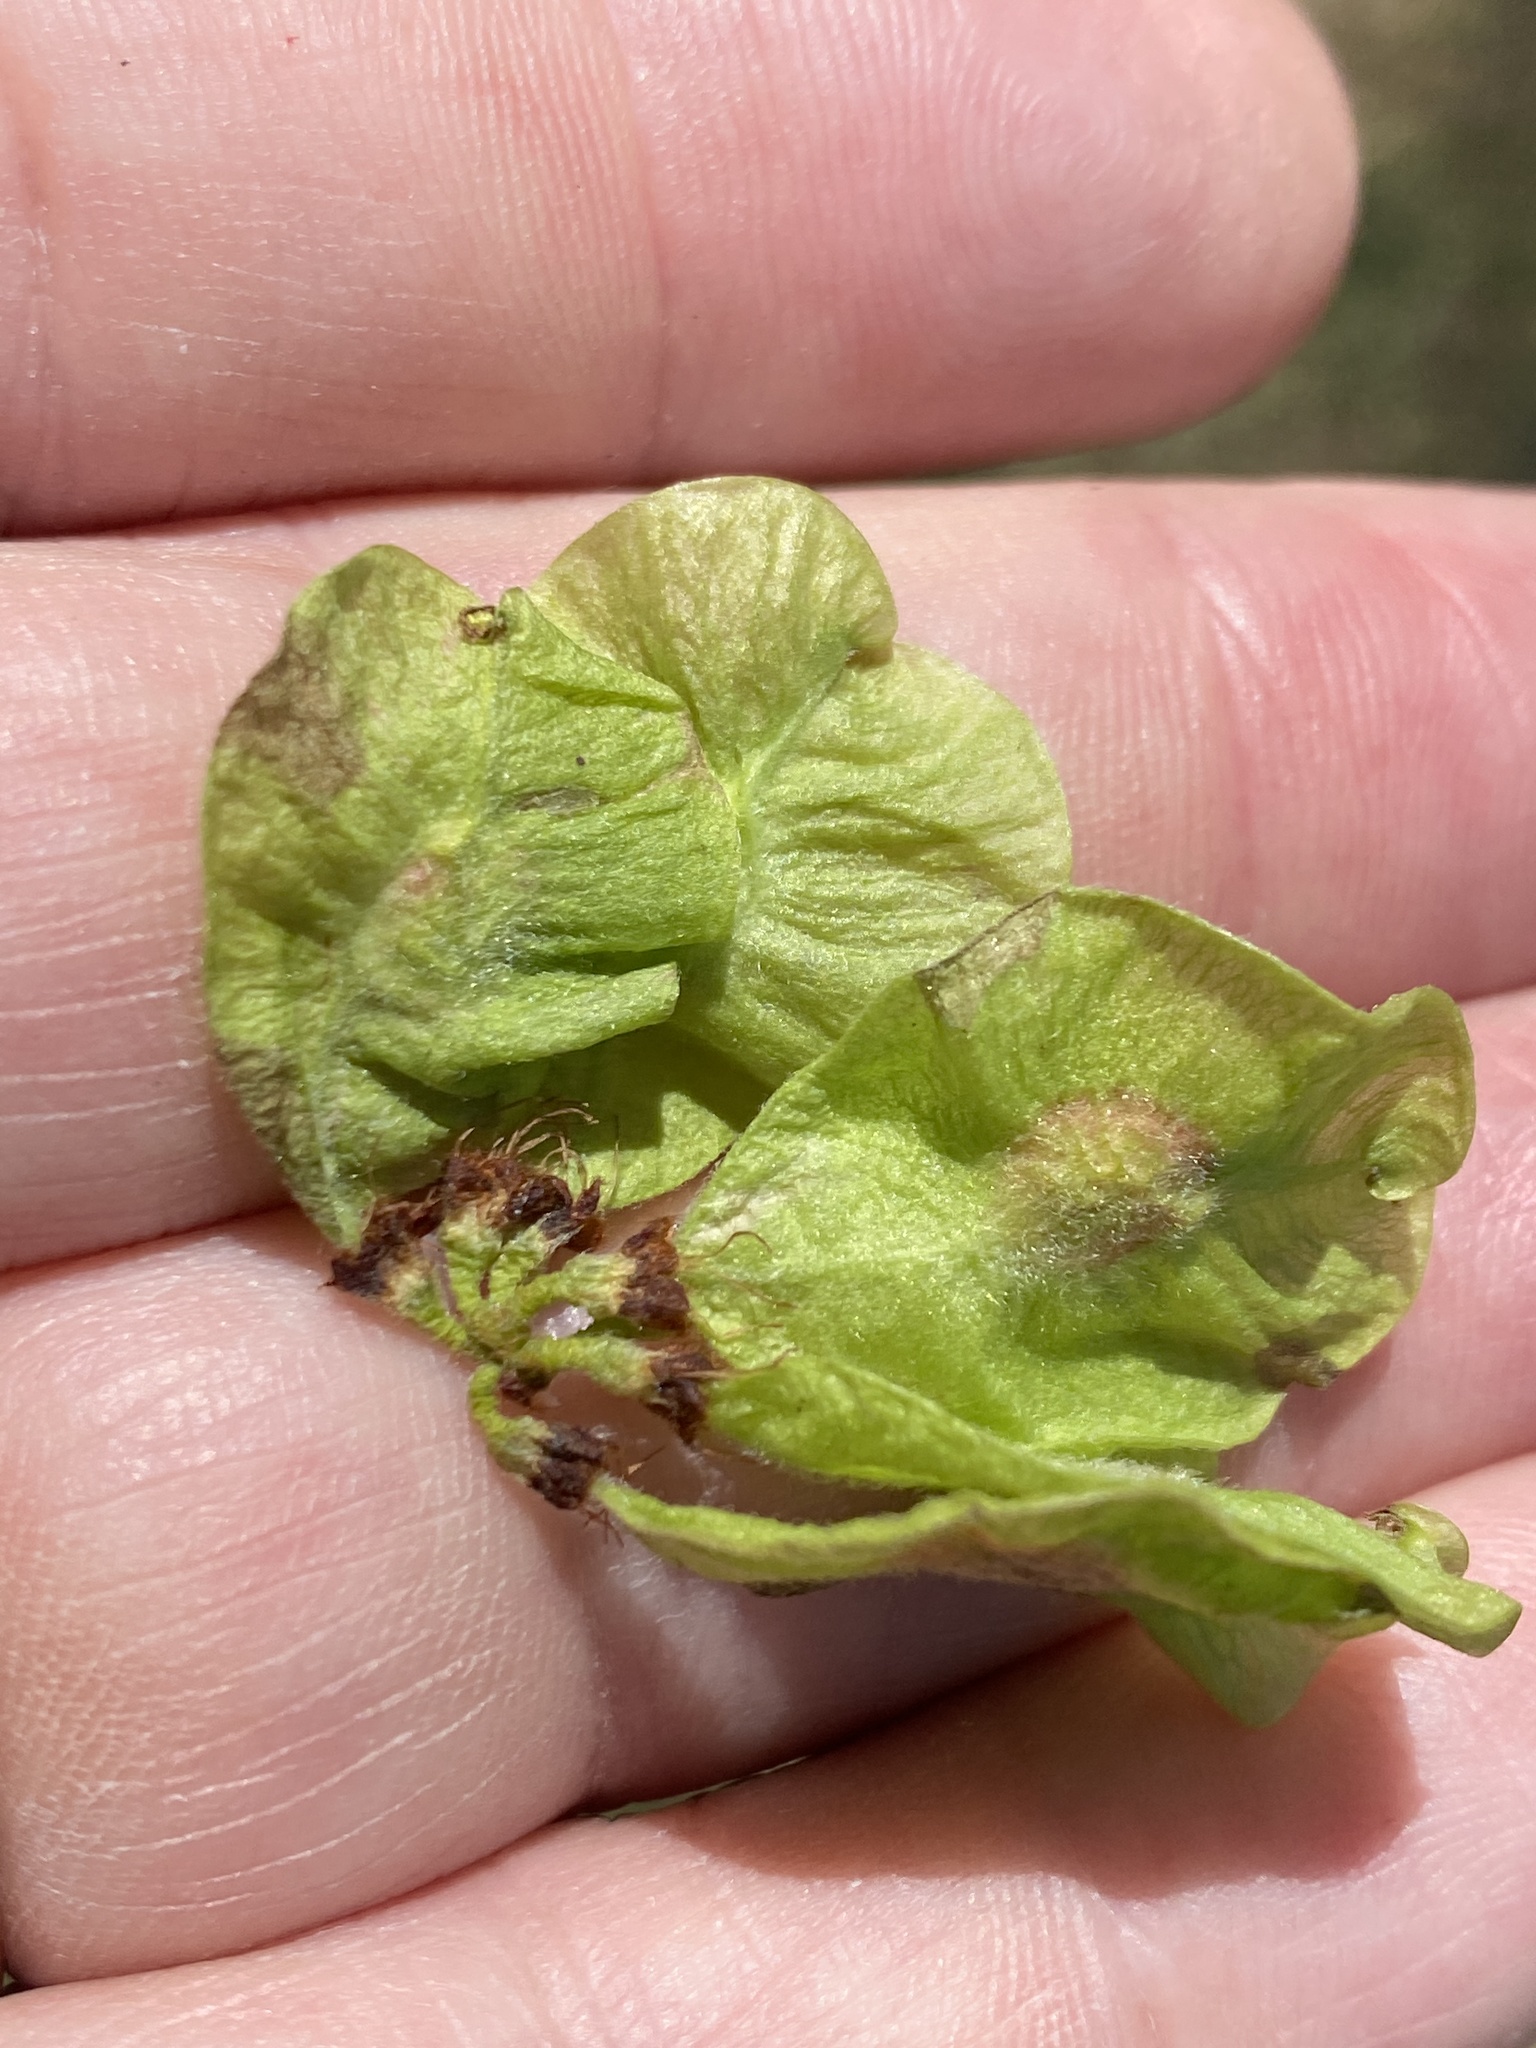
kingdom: Plantae
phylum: Tracheophyta
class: Magnoliopsida
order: Rosales
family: Ulmaceae
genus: Ulmus
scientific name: Ulmus rubra
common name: Slippery elm
